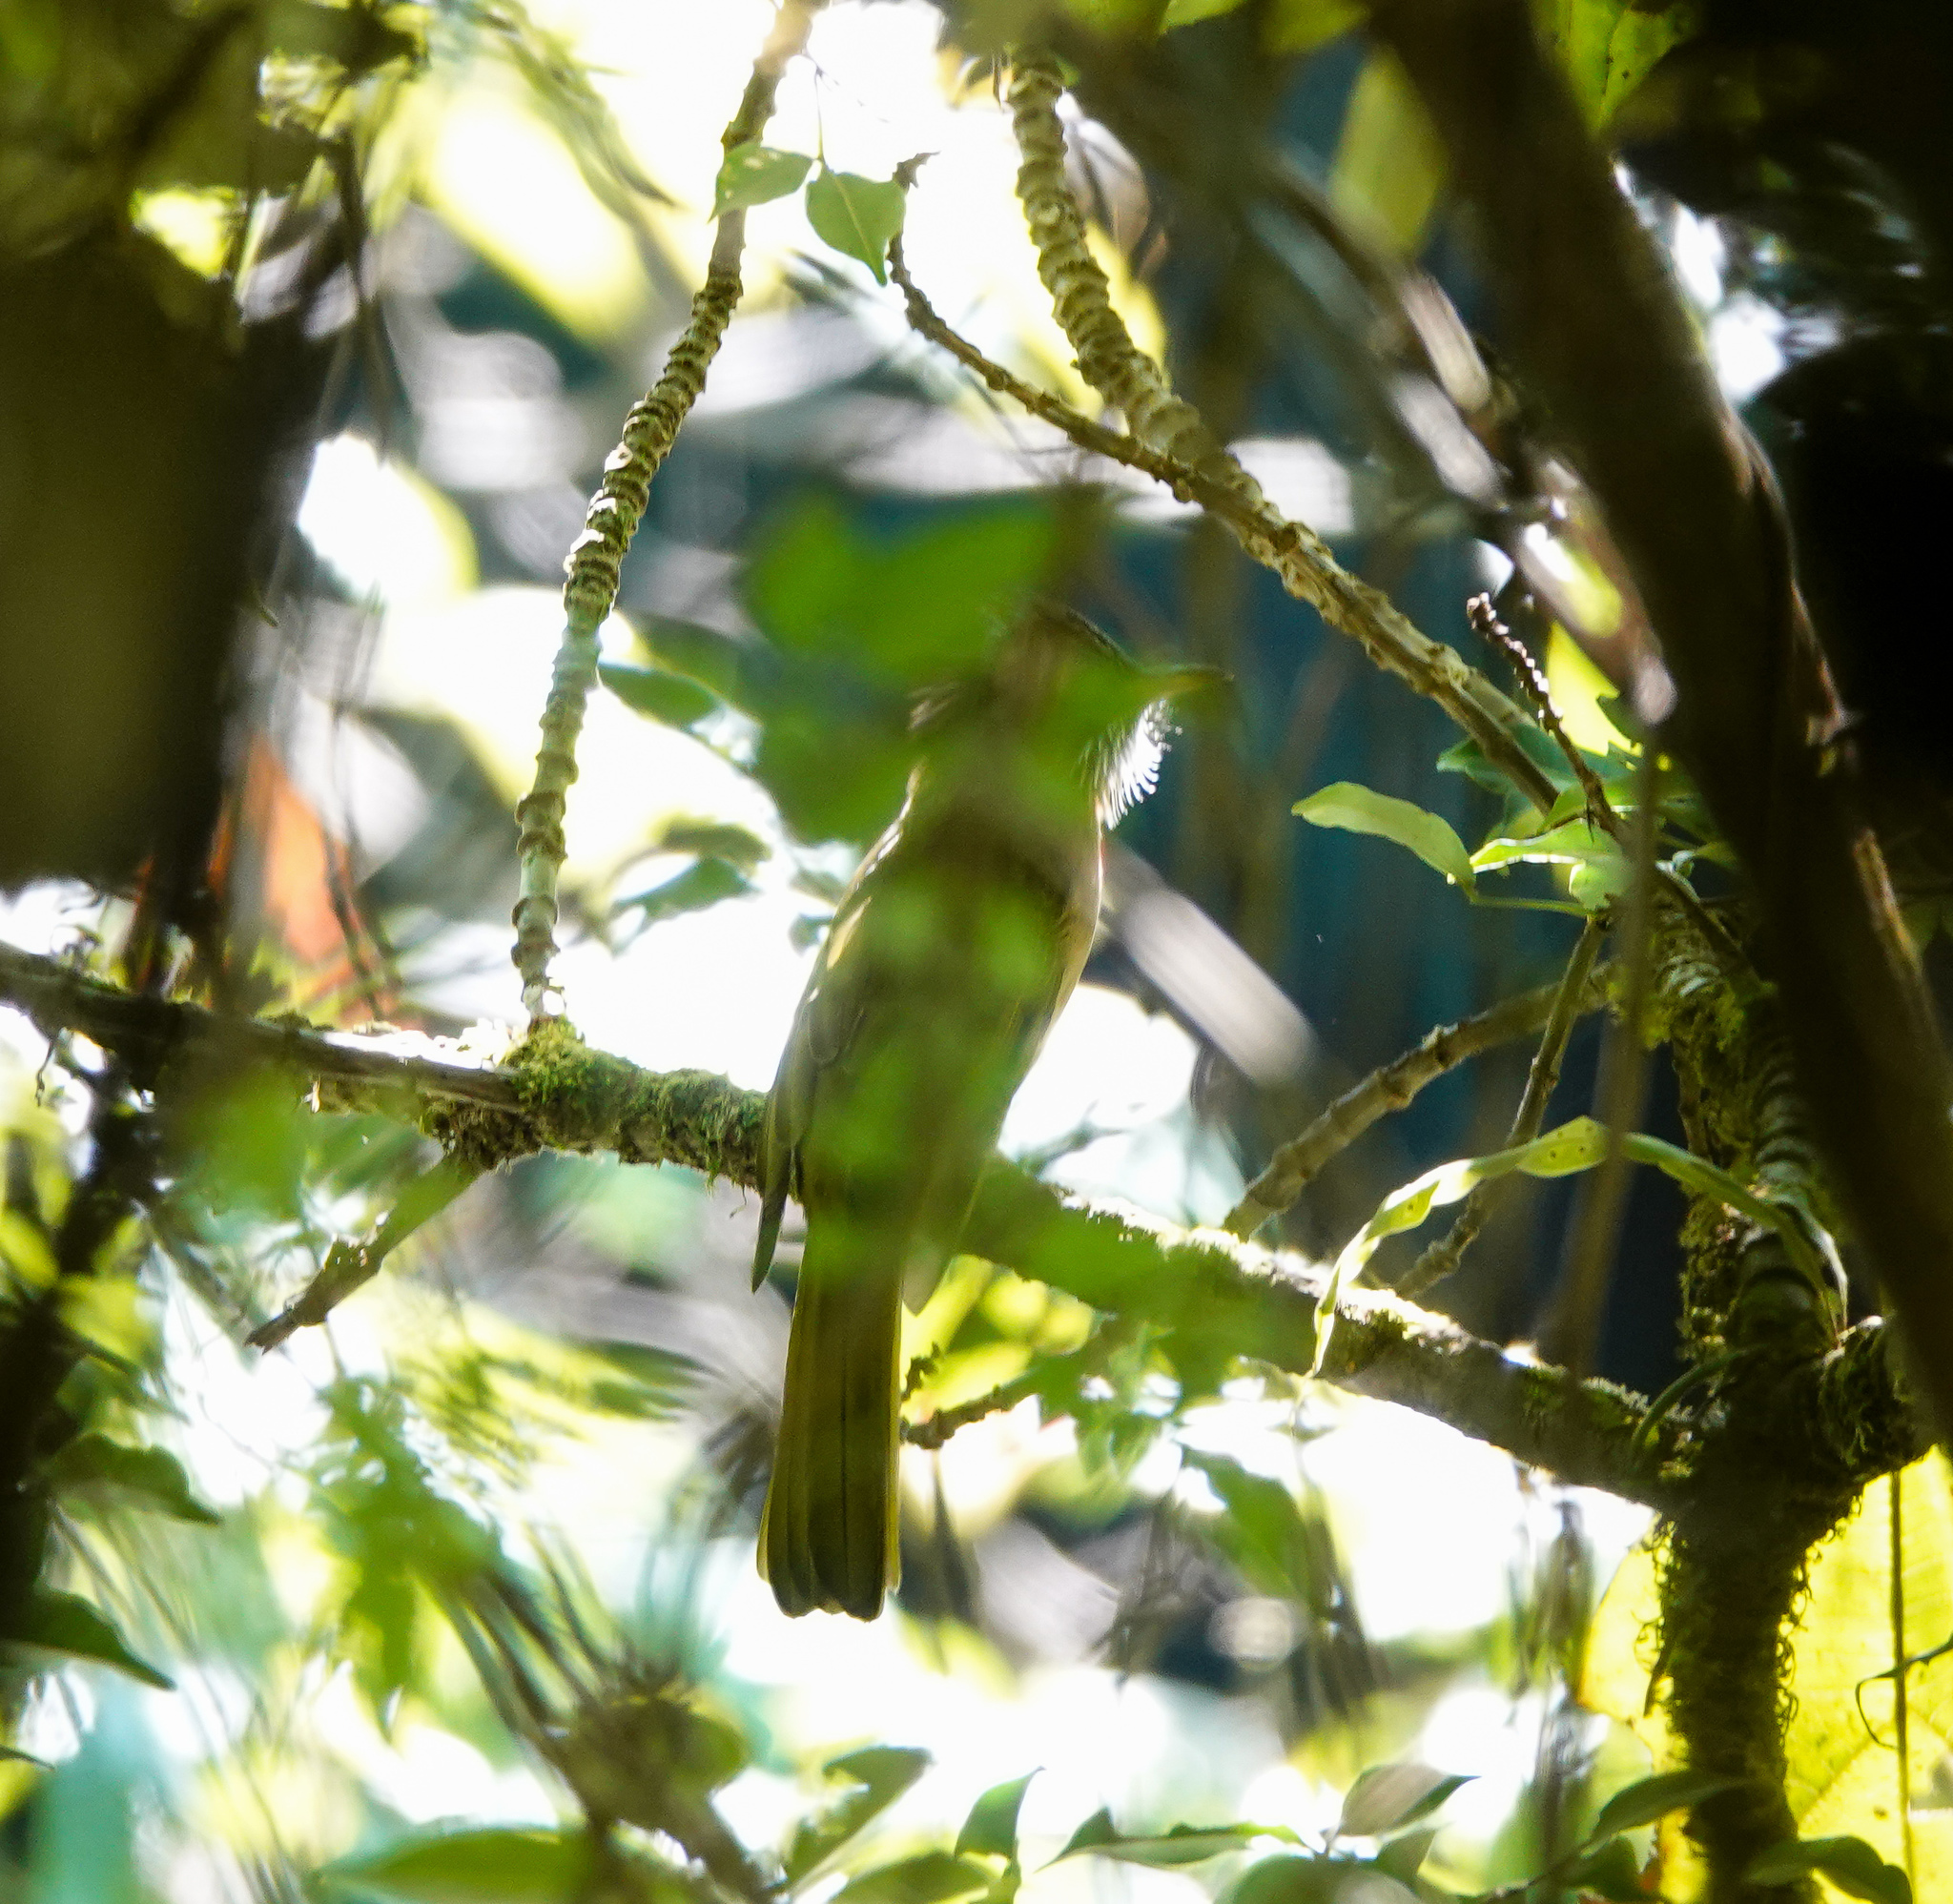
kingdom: Animalia
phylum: Chordata
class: Aves
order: Passeriformes
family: Pycnonotidae
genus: Ixos
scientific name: Ixos mcclellandii
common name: Mountain bulbul
